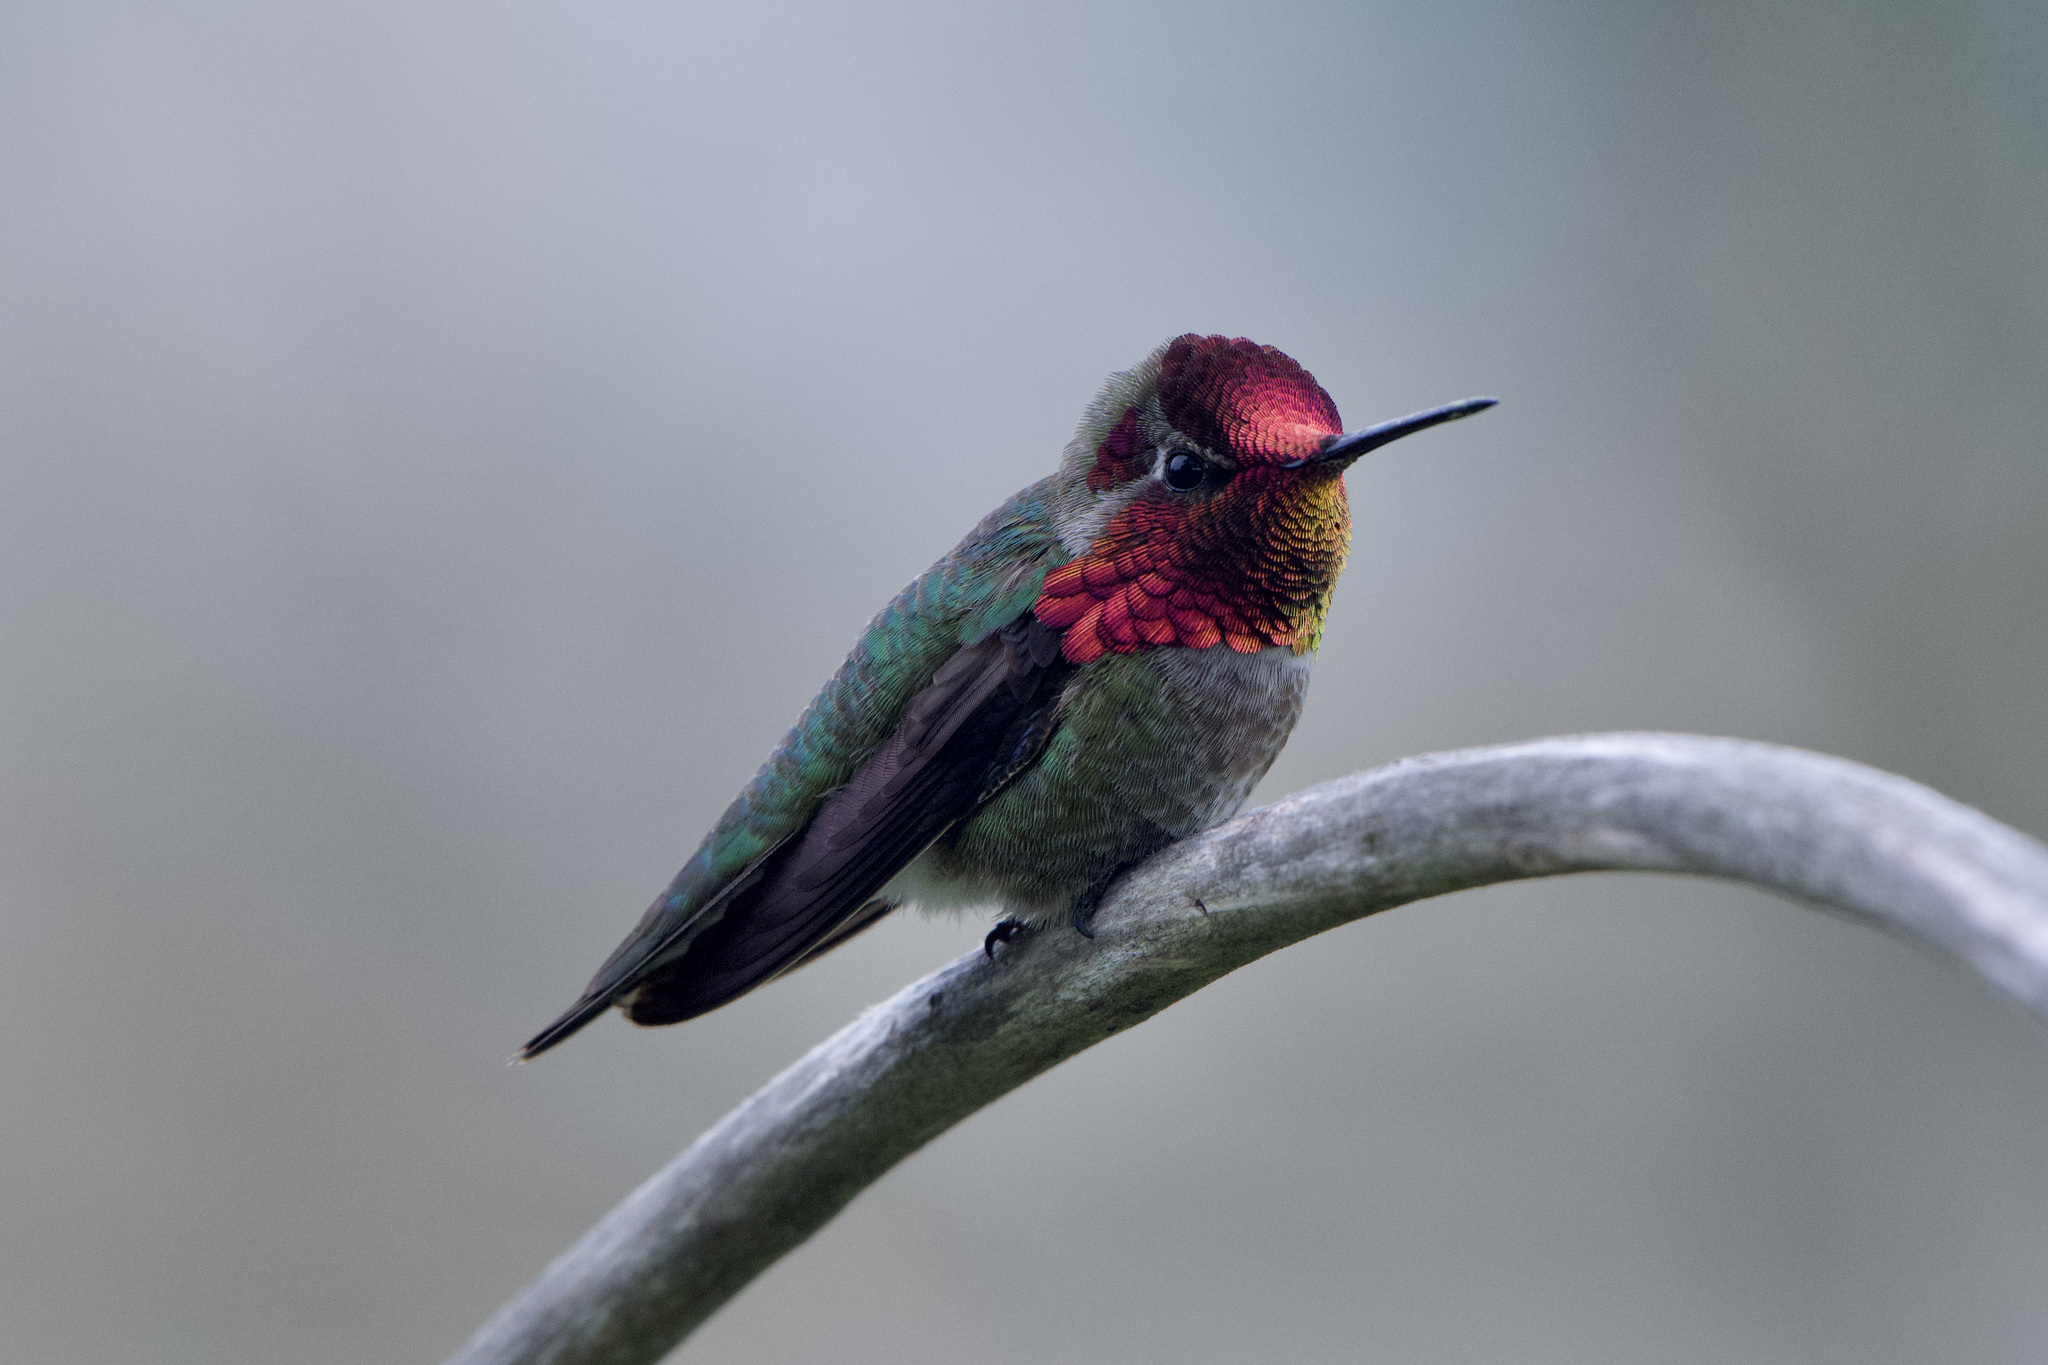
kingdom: Animalia
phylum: Chordata
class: Aves
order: Apodiformes
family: Trochilidae
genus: Calypte
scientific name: Calypte anna
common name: Anna's hummingbird
